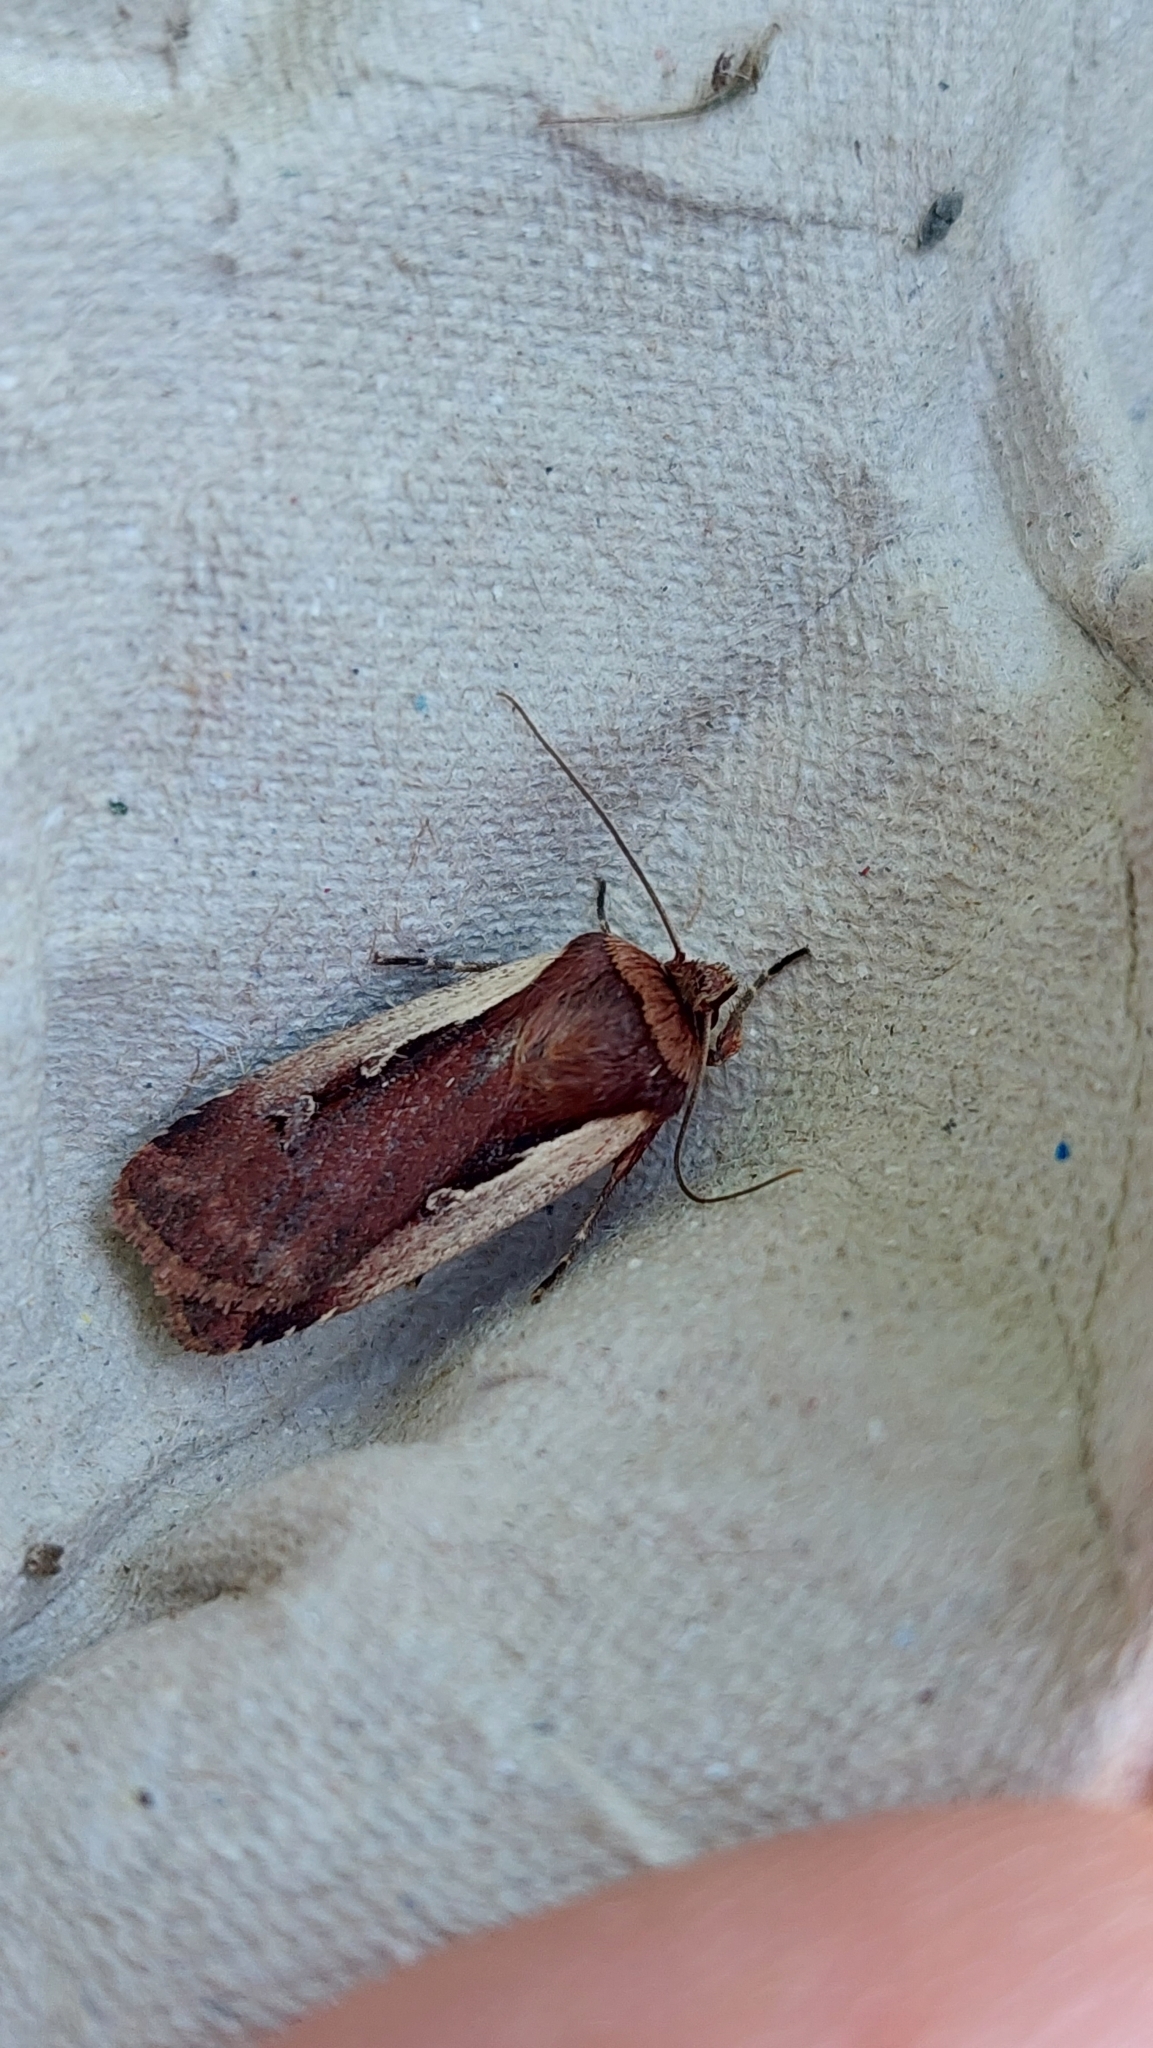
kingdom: Animalia
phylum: Arthropoda
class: Insecta
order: Lepidoptera
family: Noctuidae
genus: Ochropleura
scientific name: Ochropleura plecta
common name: Flame shoulder
